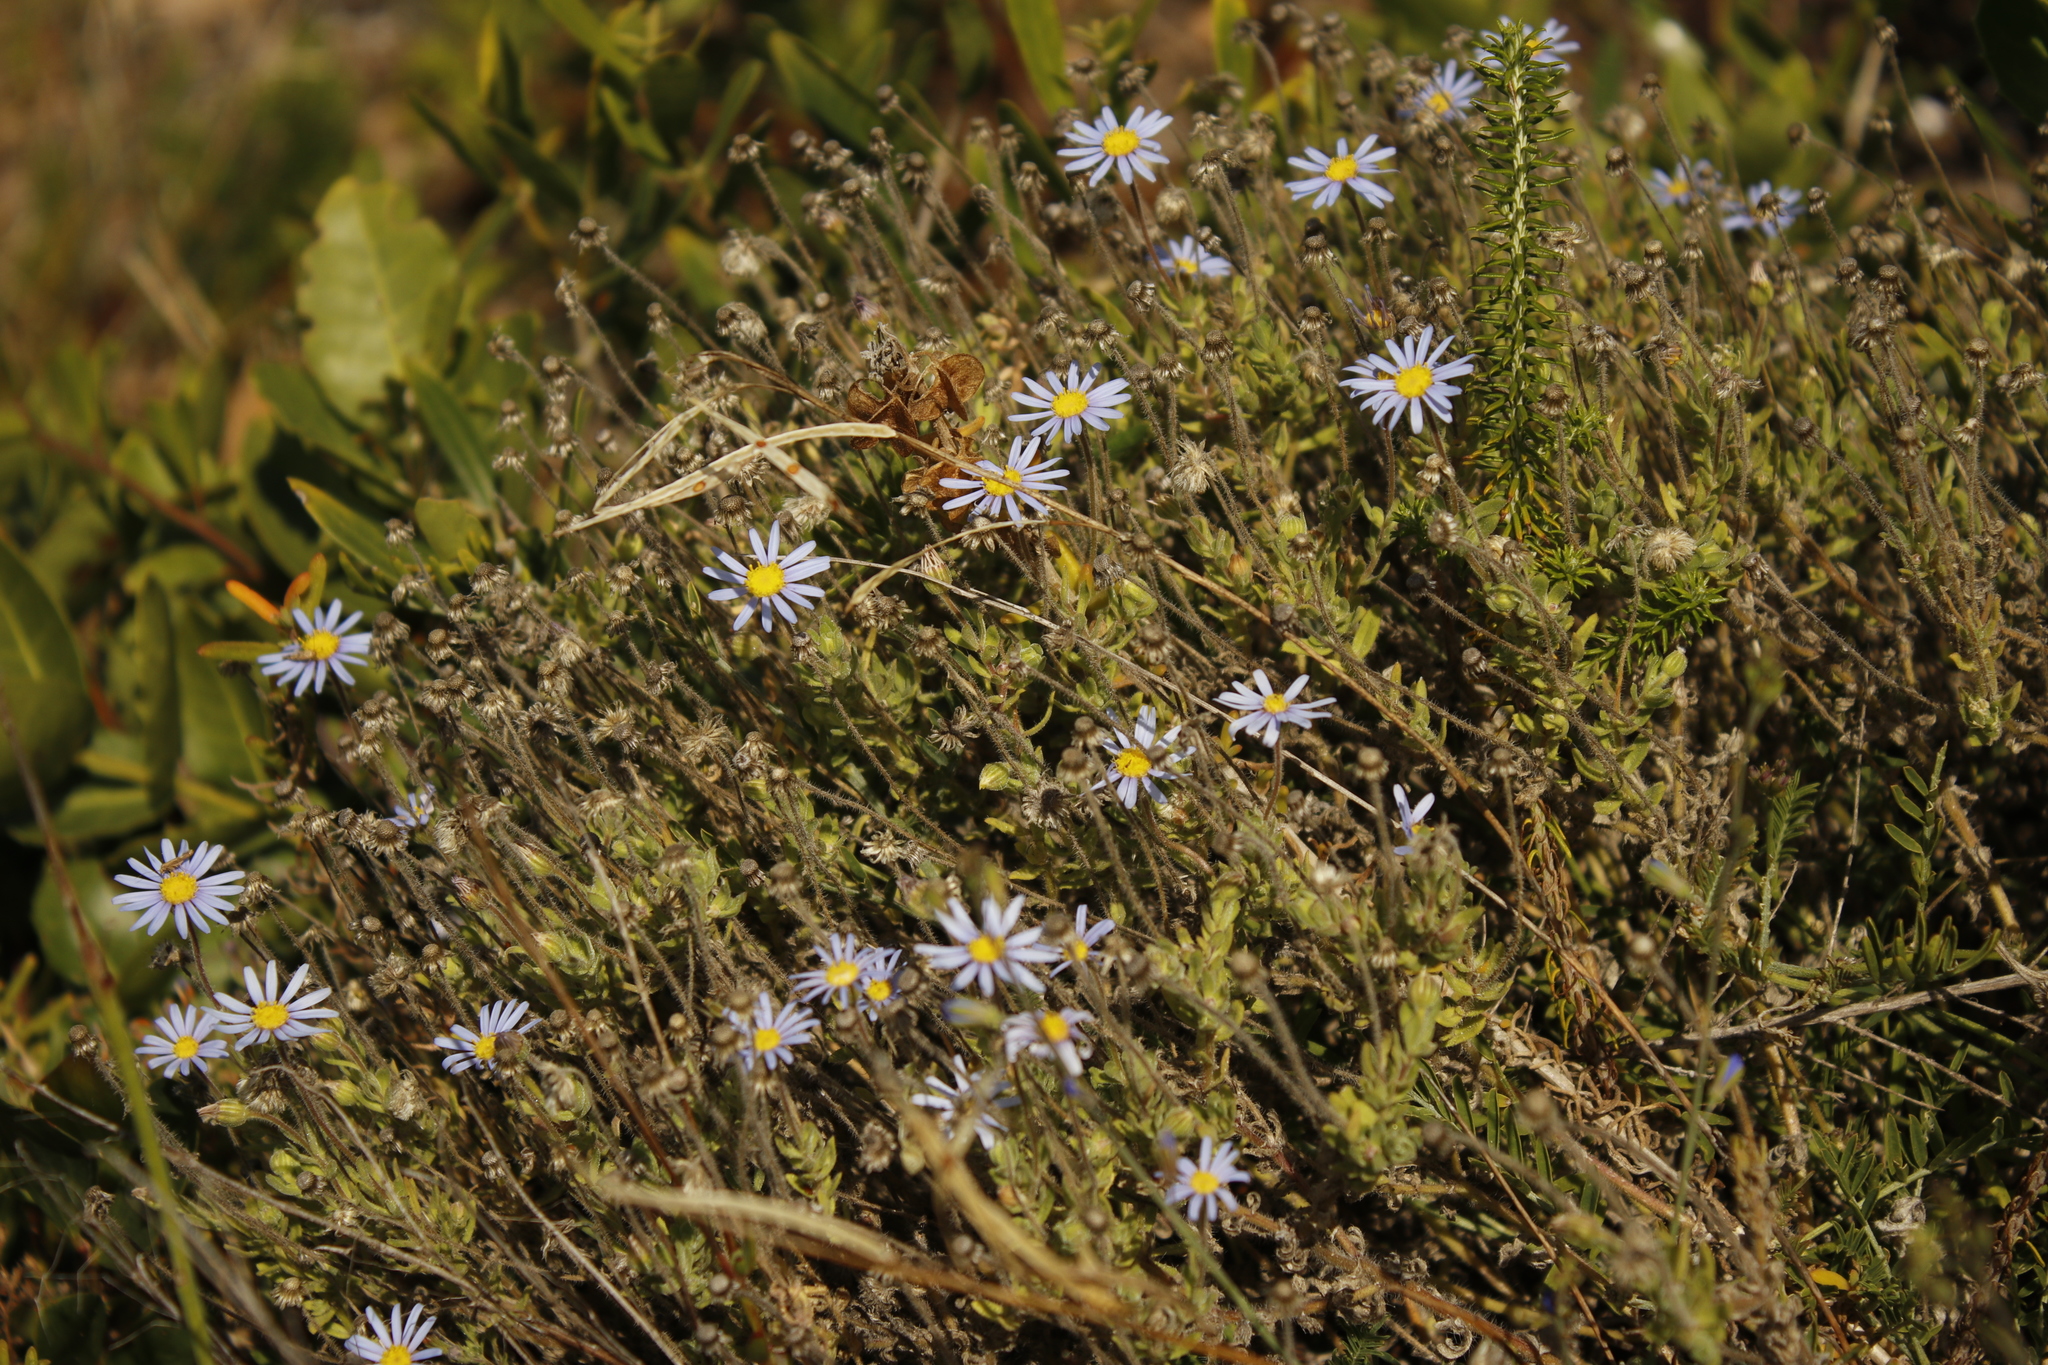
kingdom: Plantae
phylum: Tracheophyta
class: Magnoliopsida
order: Asterales
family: Asteraceae
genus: Felicia
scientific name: Felicia amoena
